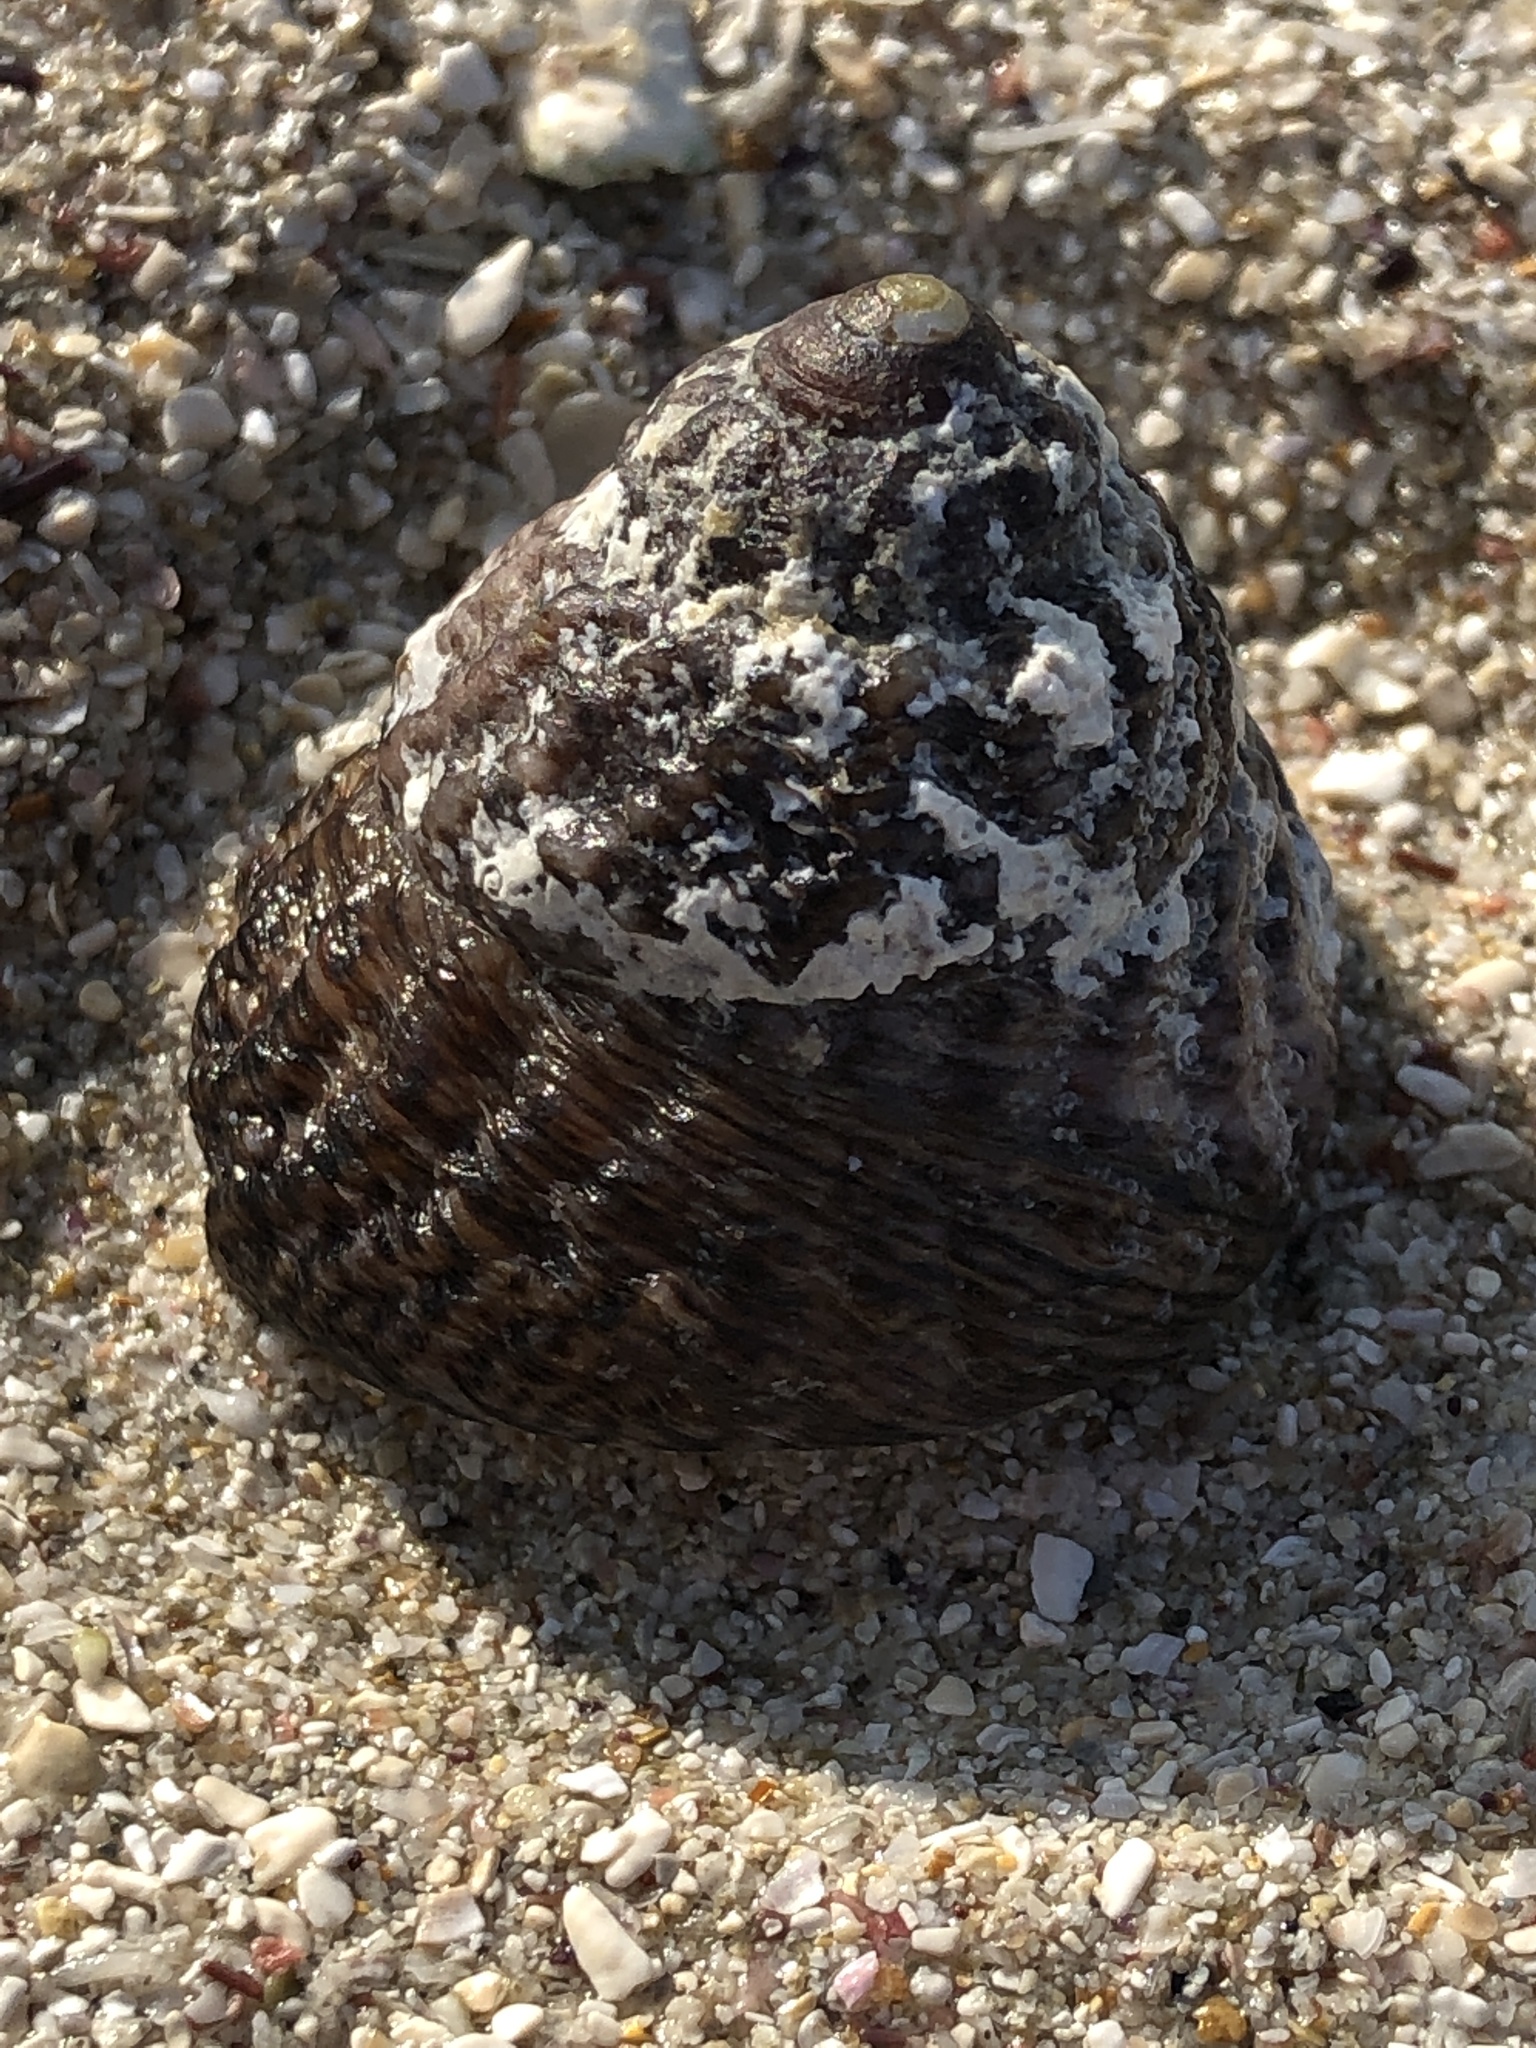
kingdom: Animalia
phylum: Mollusca
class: Gastropoda
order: Trochida
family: Tegulidae
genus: Tegula
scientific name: Tegula pfeifferi
